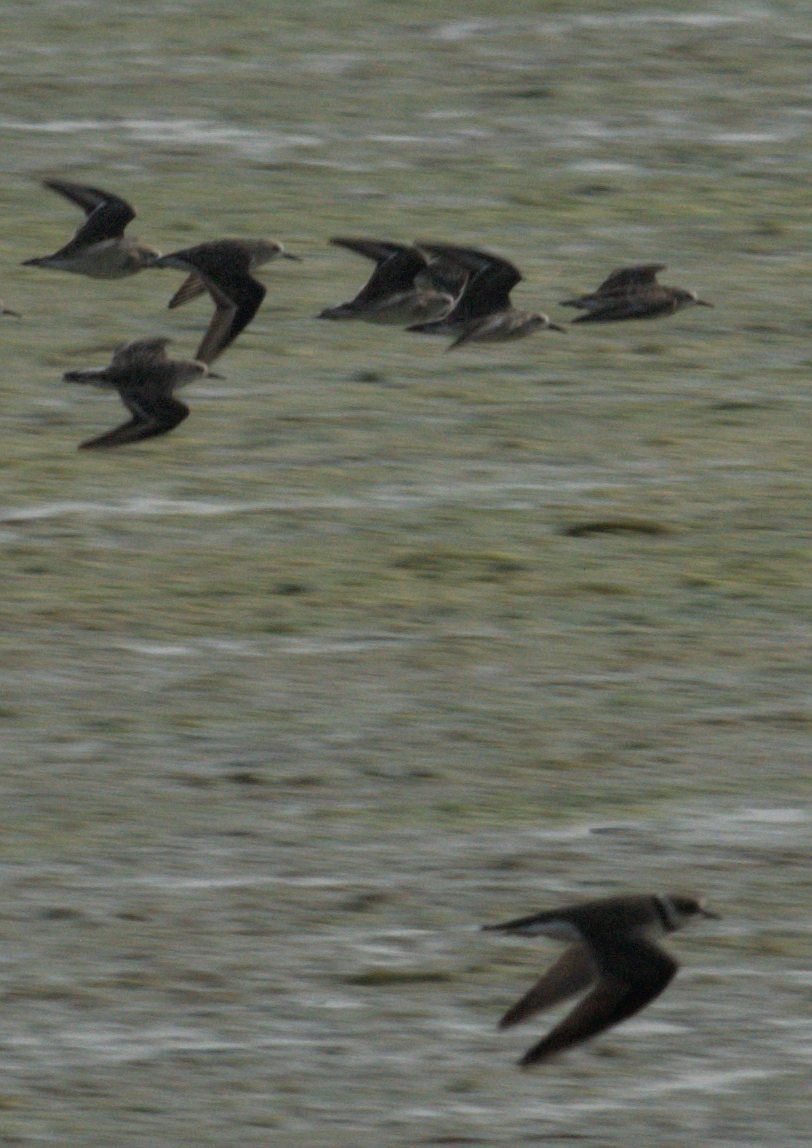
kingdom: Animalia
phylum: Chordata
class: Aves
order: Charadriiformes
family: Charadriidae
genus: Charadrius
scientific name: Charadrius dubius
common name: Little ringed plover
